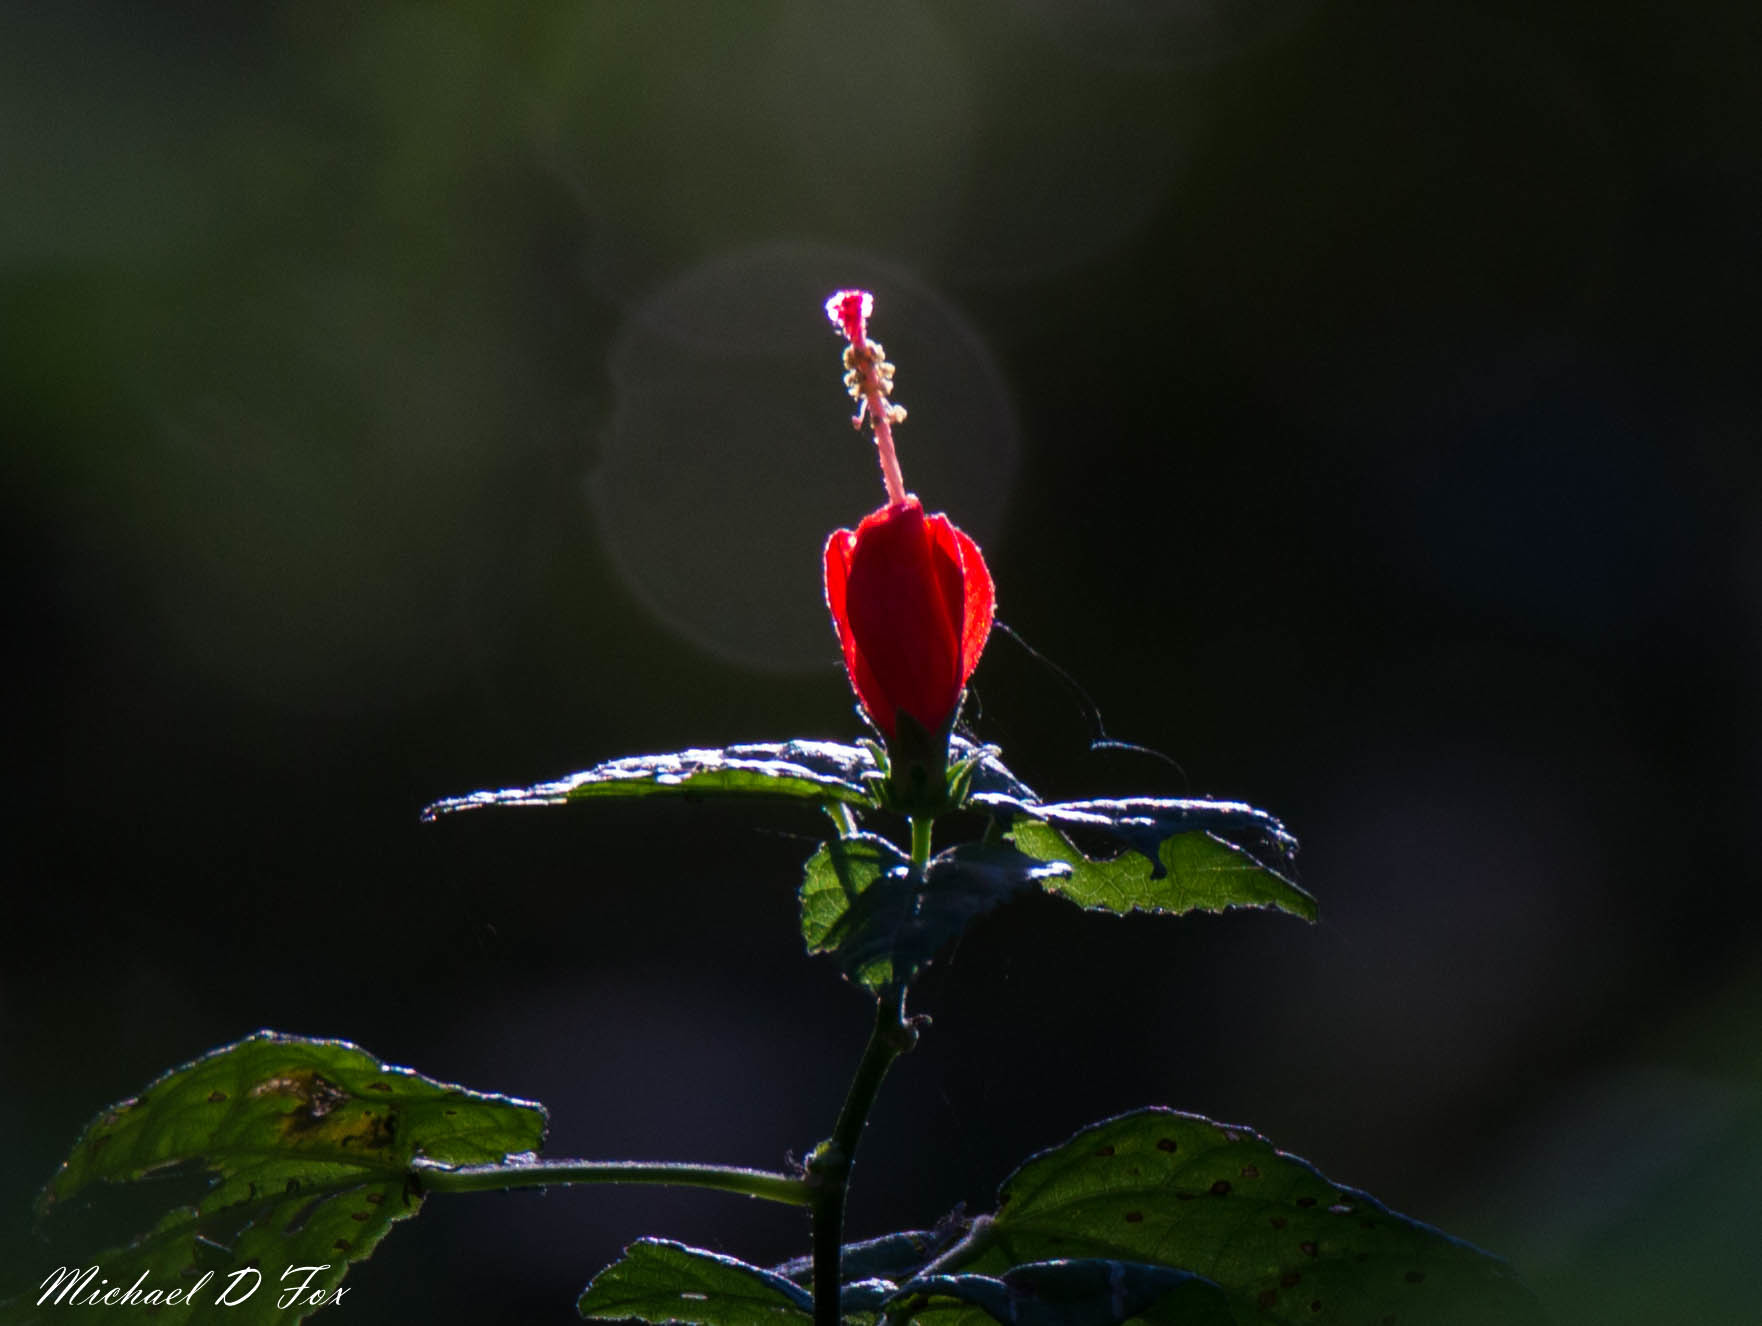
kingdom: Plantae
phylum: Tracheophyta
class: Magnoliopsida
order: Malvales
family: Malvaceae
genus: Malvaviscus
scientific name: Malvaviscus arboreus
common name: Wax mallow
